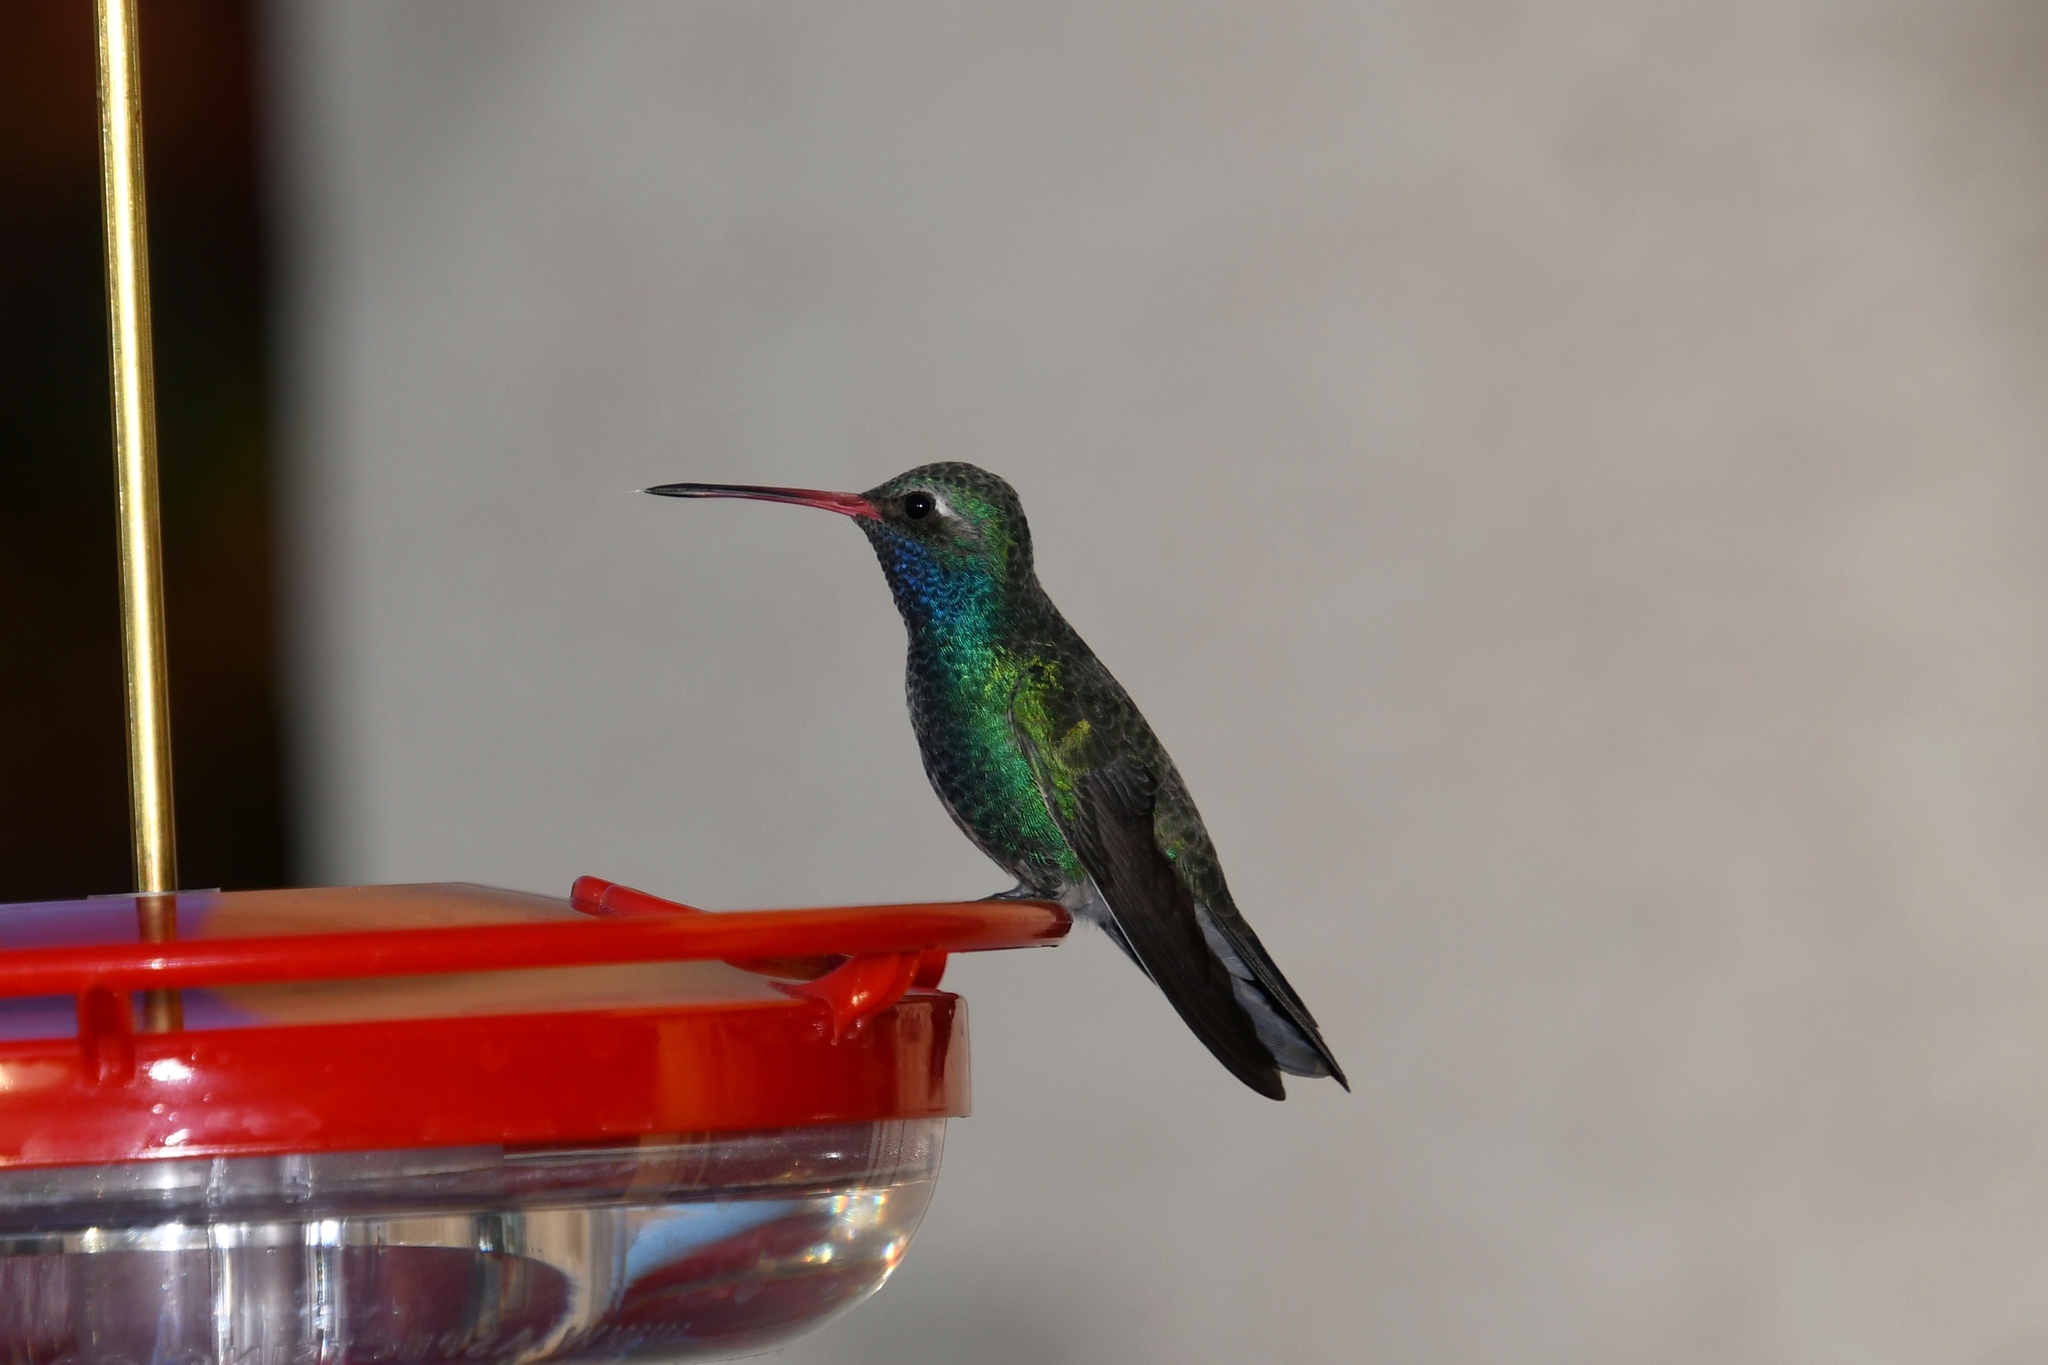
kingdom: Animalia
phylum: Chordata
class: Aves
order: Apodiformes
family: Trochilidae
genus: Cynanthus
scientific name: Cynanthus latirostris
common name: Broad-billed hummingbird
